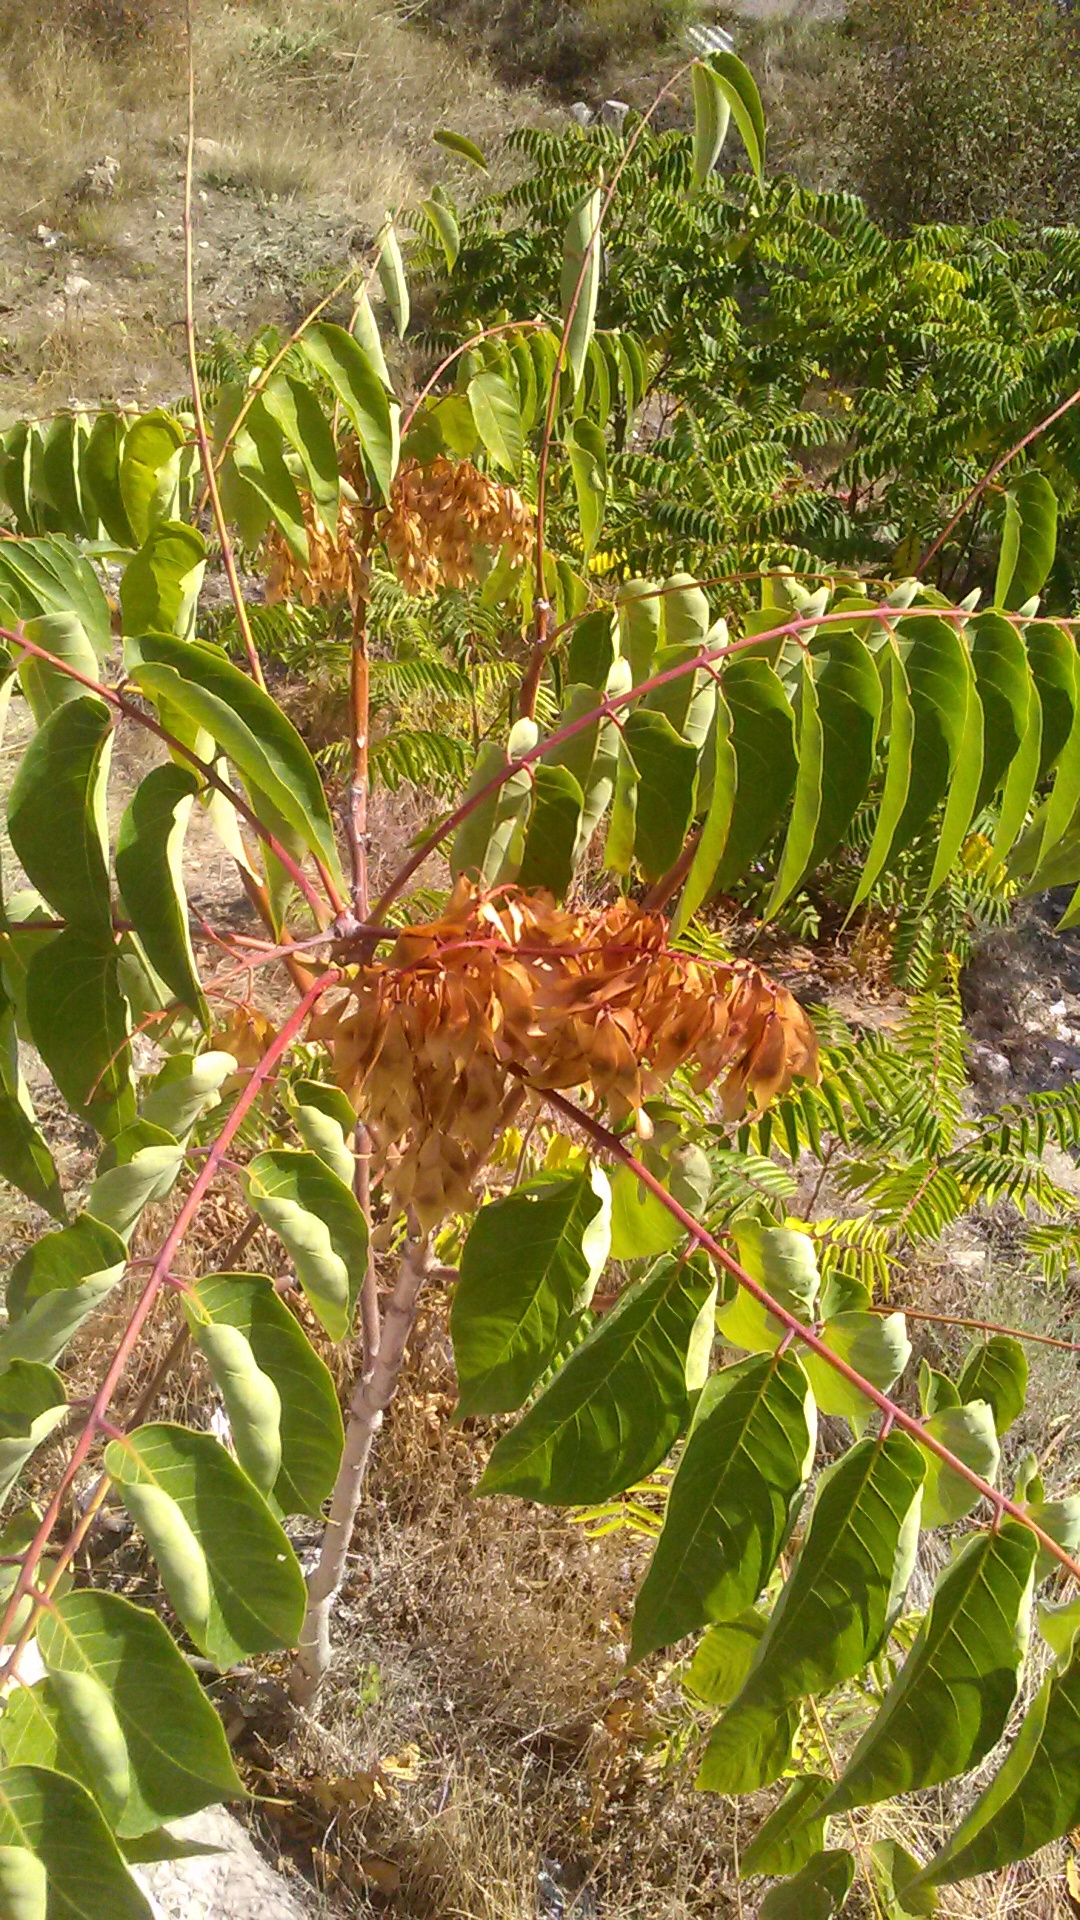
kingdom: Plantae
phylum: Tracheophyta
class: Magnoliopsida
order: Sapindales
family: Simaroubaceae
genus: Ailanthus
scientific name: Ailanthus altissima
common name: Tree-of-heaven
